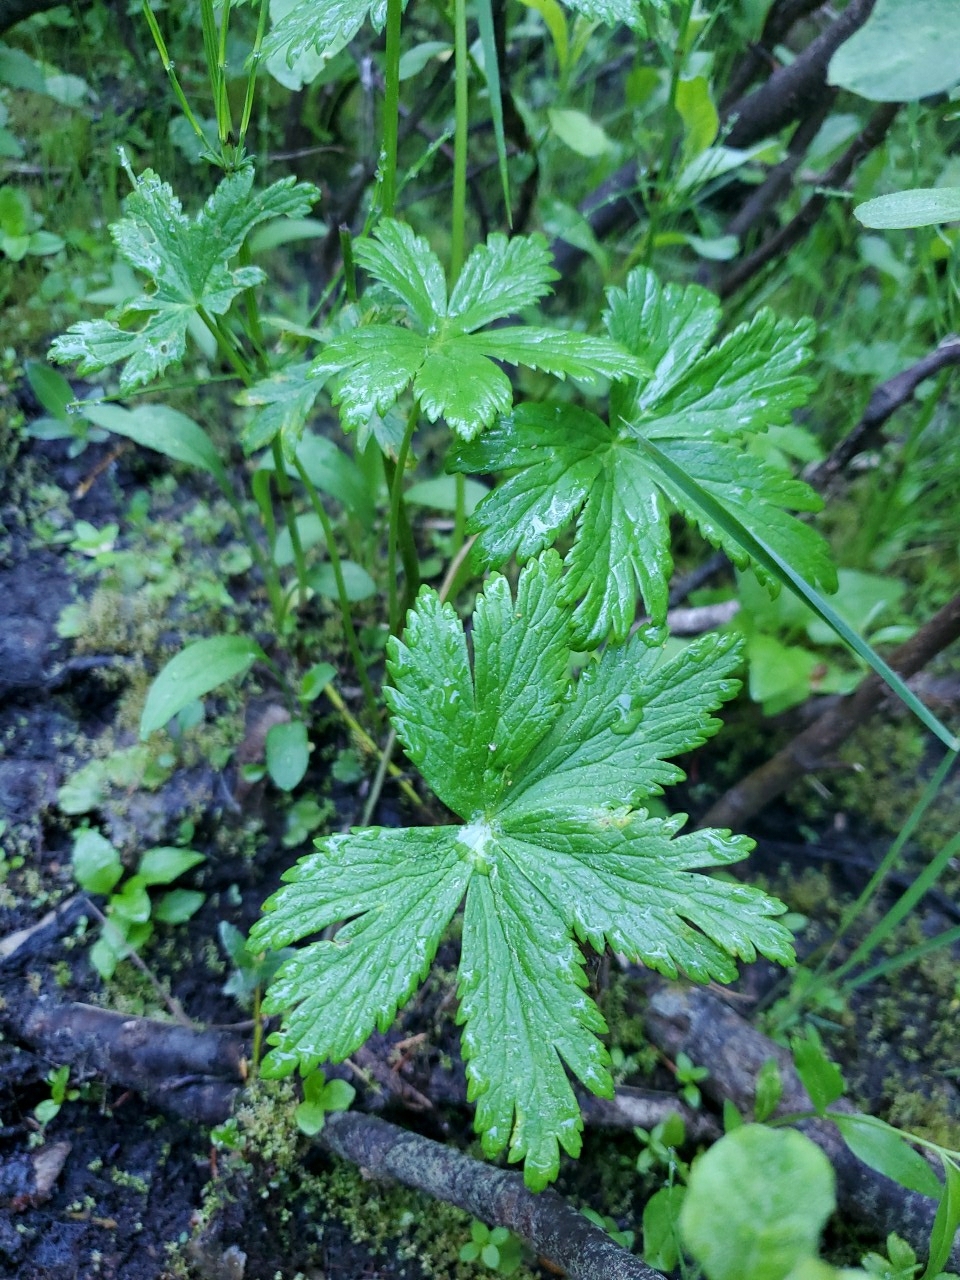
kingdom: Plantae
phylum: Tracheophyta
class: Magnoliopsida
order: Ranunculales
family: Ranunculaceae
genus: Trollius
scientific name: Trollius laxus
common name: American globeflower
